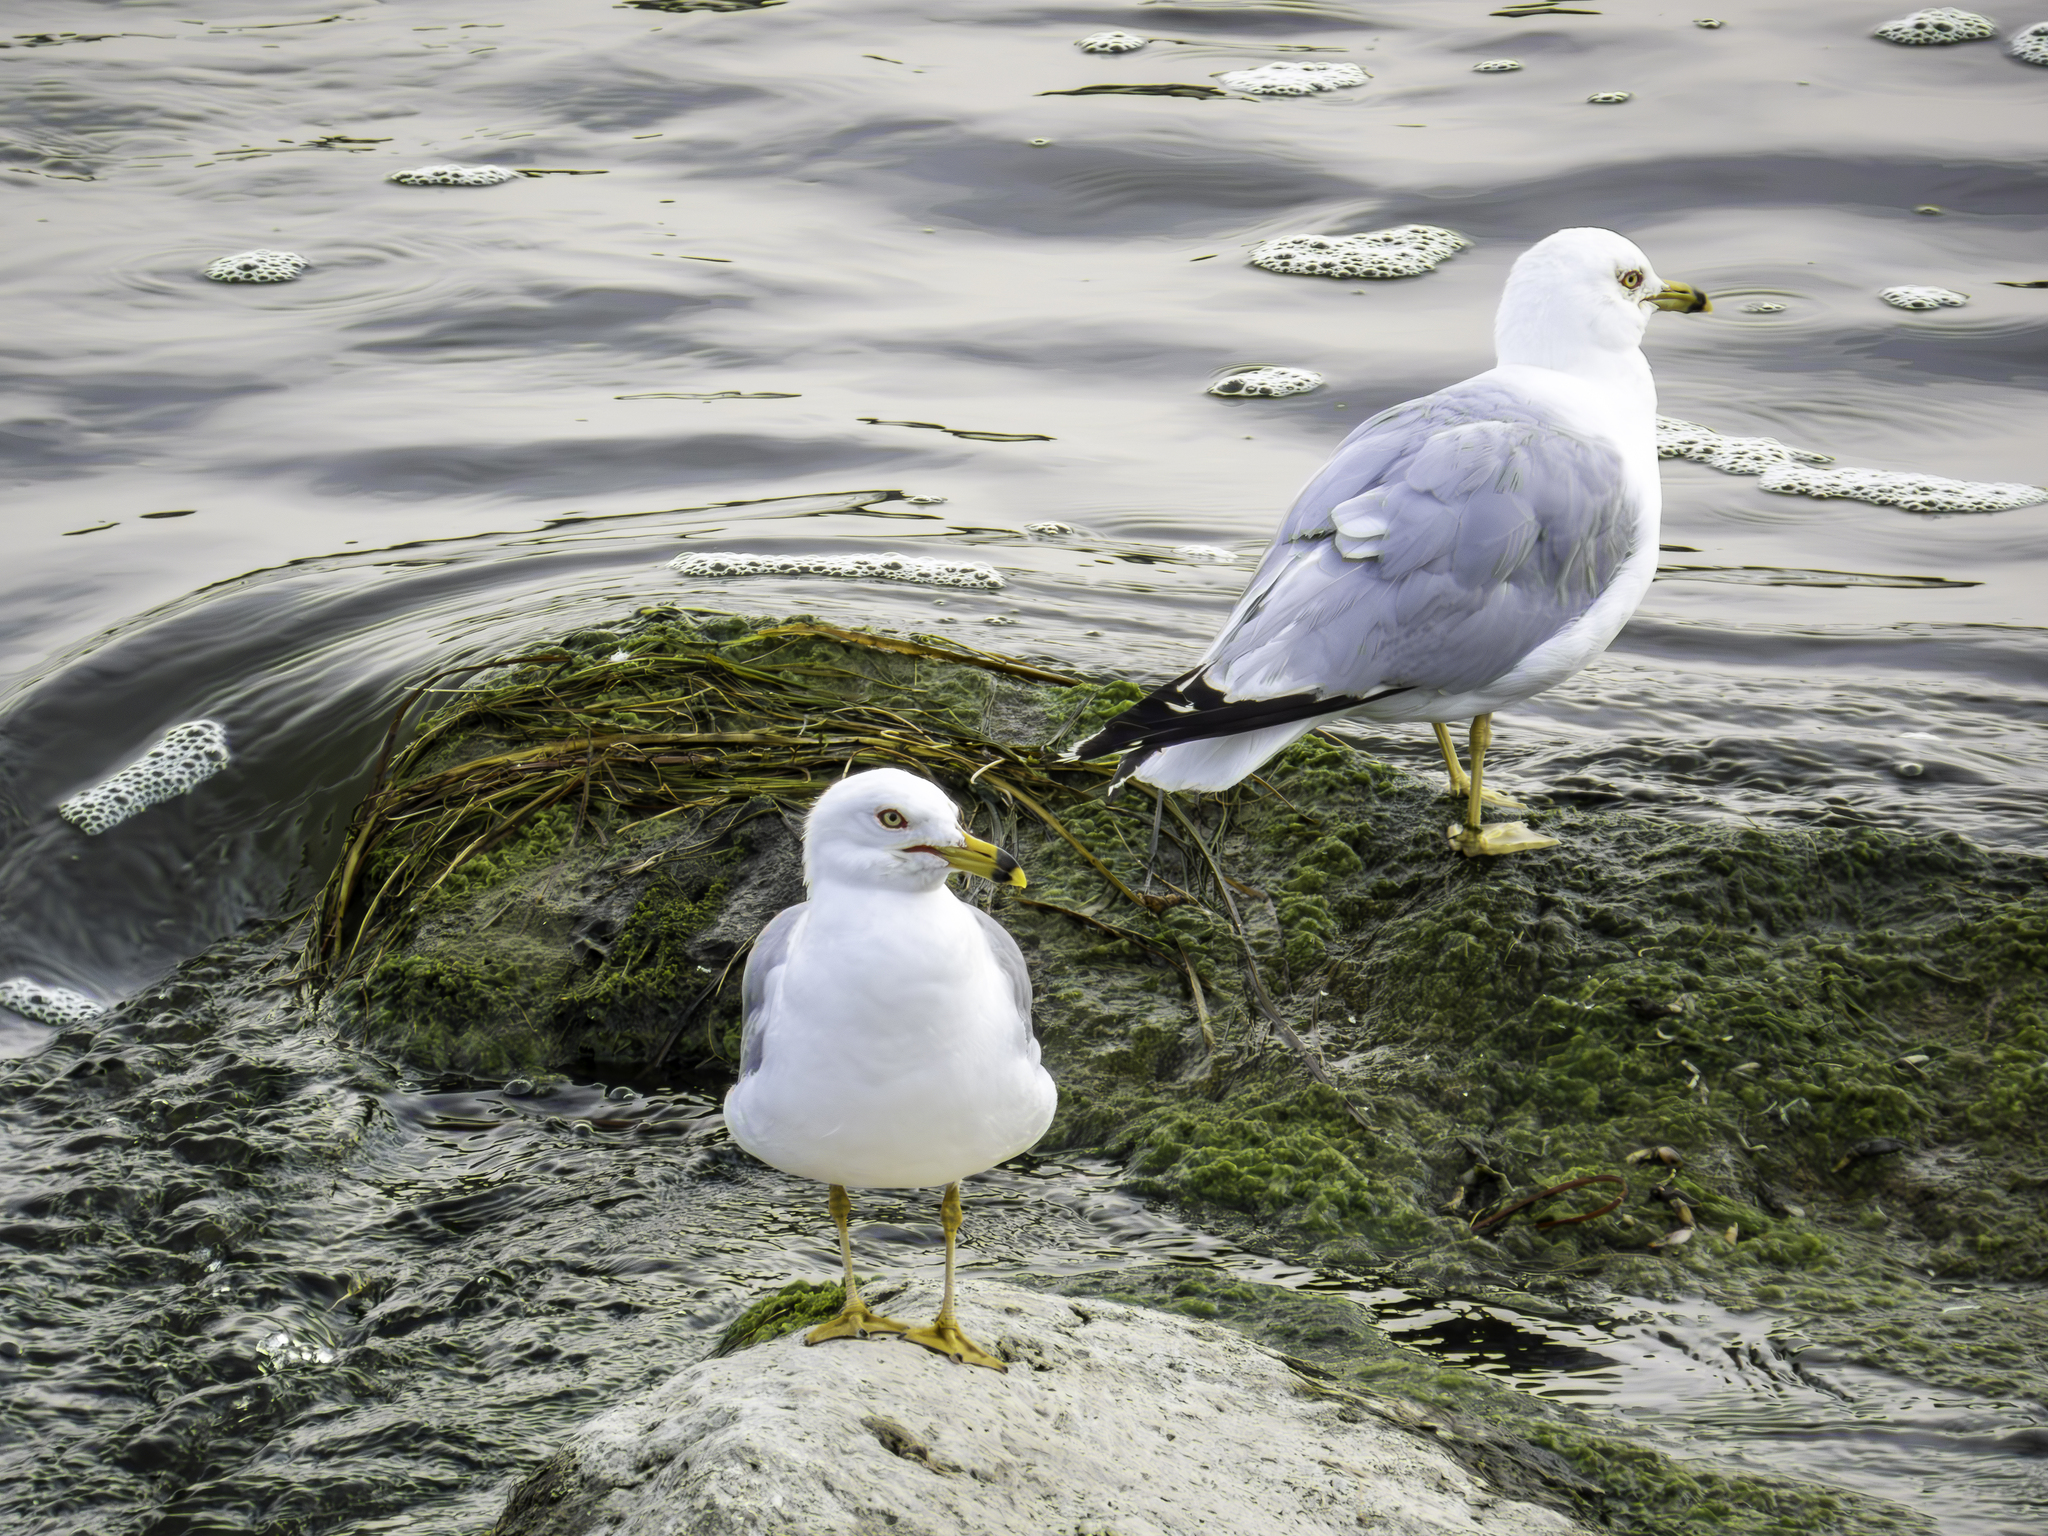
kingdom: Animalia
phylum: Chordata
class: Aves
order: Charadriiformes
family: Laridae
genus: Larus
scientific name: Larus delawarensis
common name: Ring-billed gull
